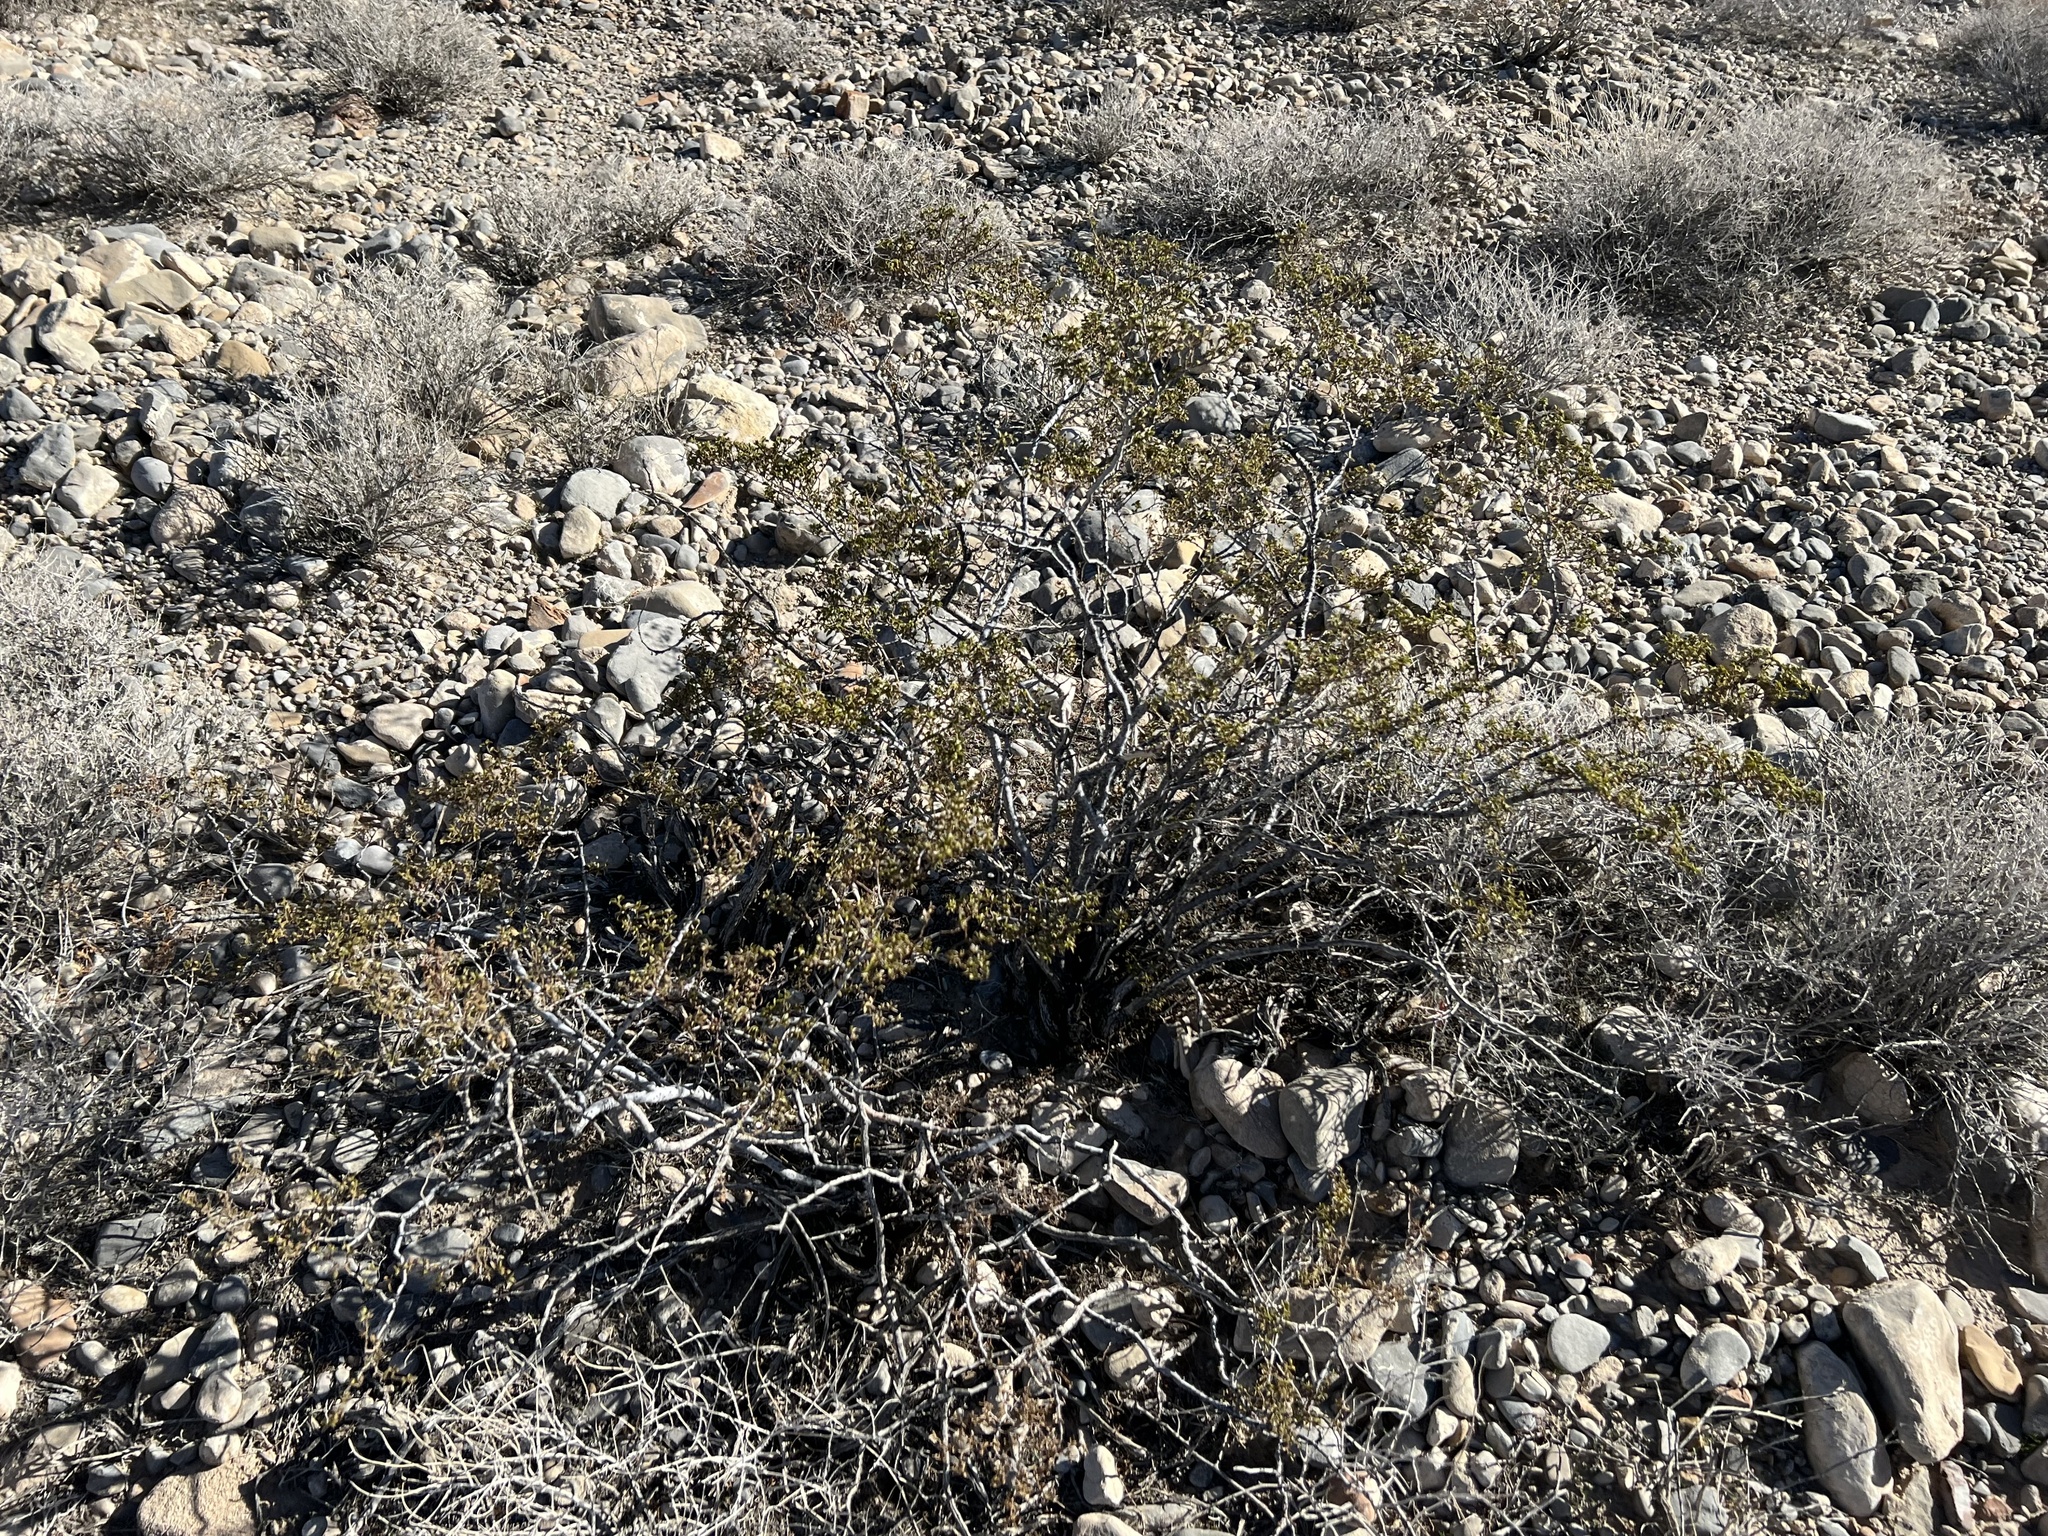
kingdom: Plantae
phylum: Tracheophyta
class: Magnoliopsida
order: Zygophyllales
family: Zygophyllaceae
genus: Larrea
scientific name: Larrea tridentata
